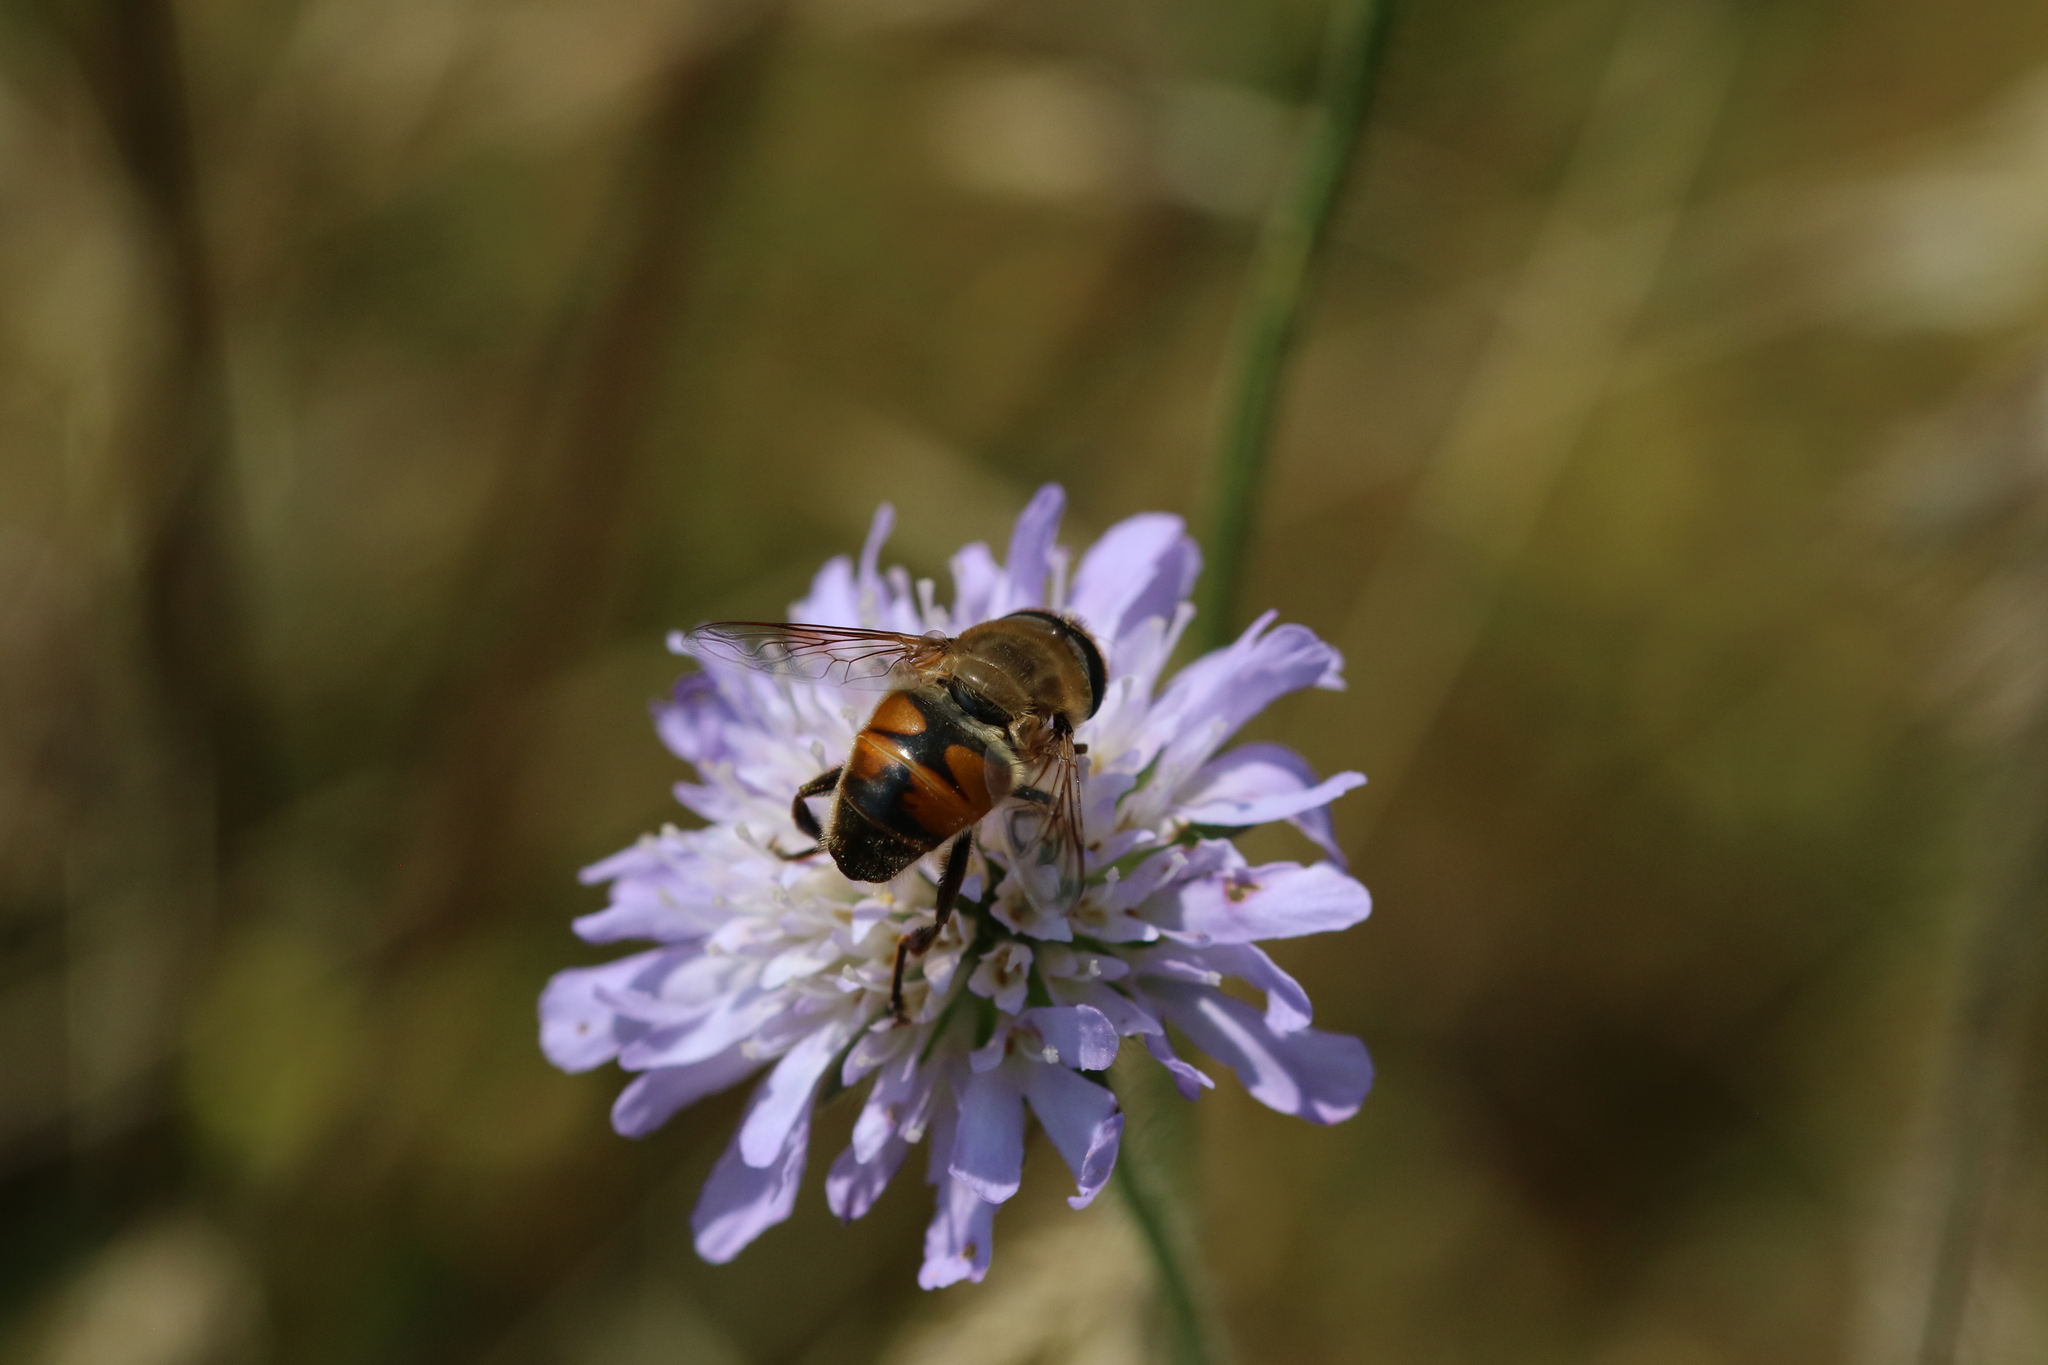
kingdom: Animalia
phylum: Arthropoda
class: Insecta
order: Diptera
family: Syrphidae
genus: Eristalis
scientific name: Eristalis tenax
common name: Drone fly
